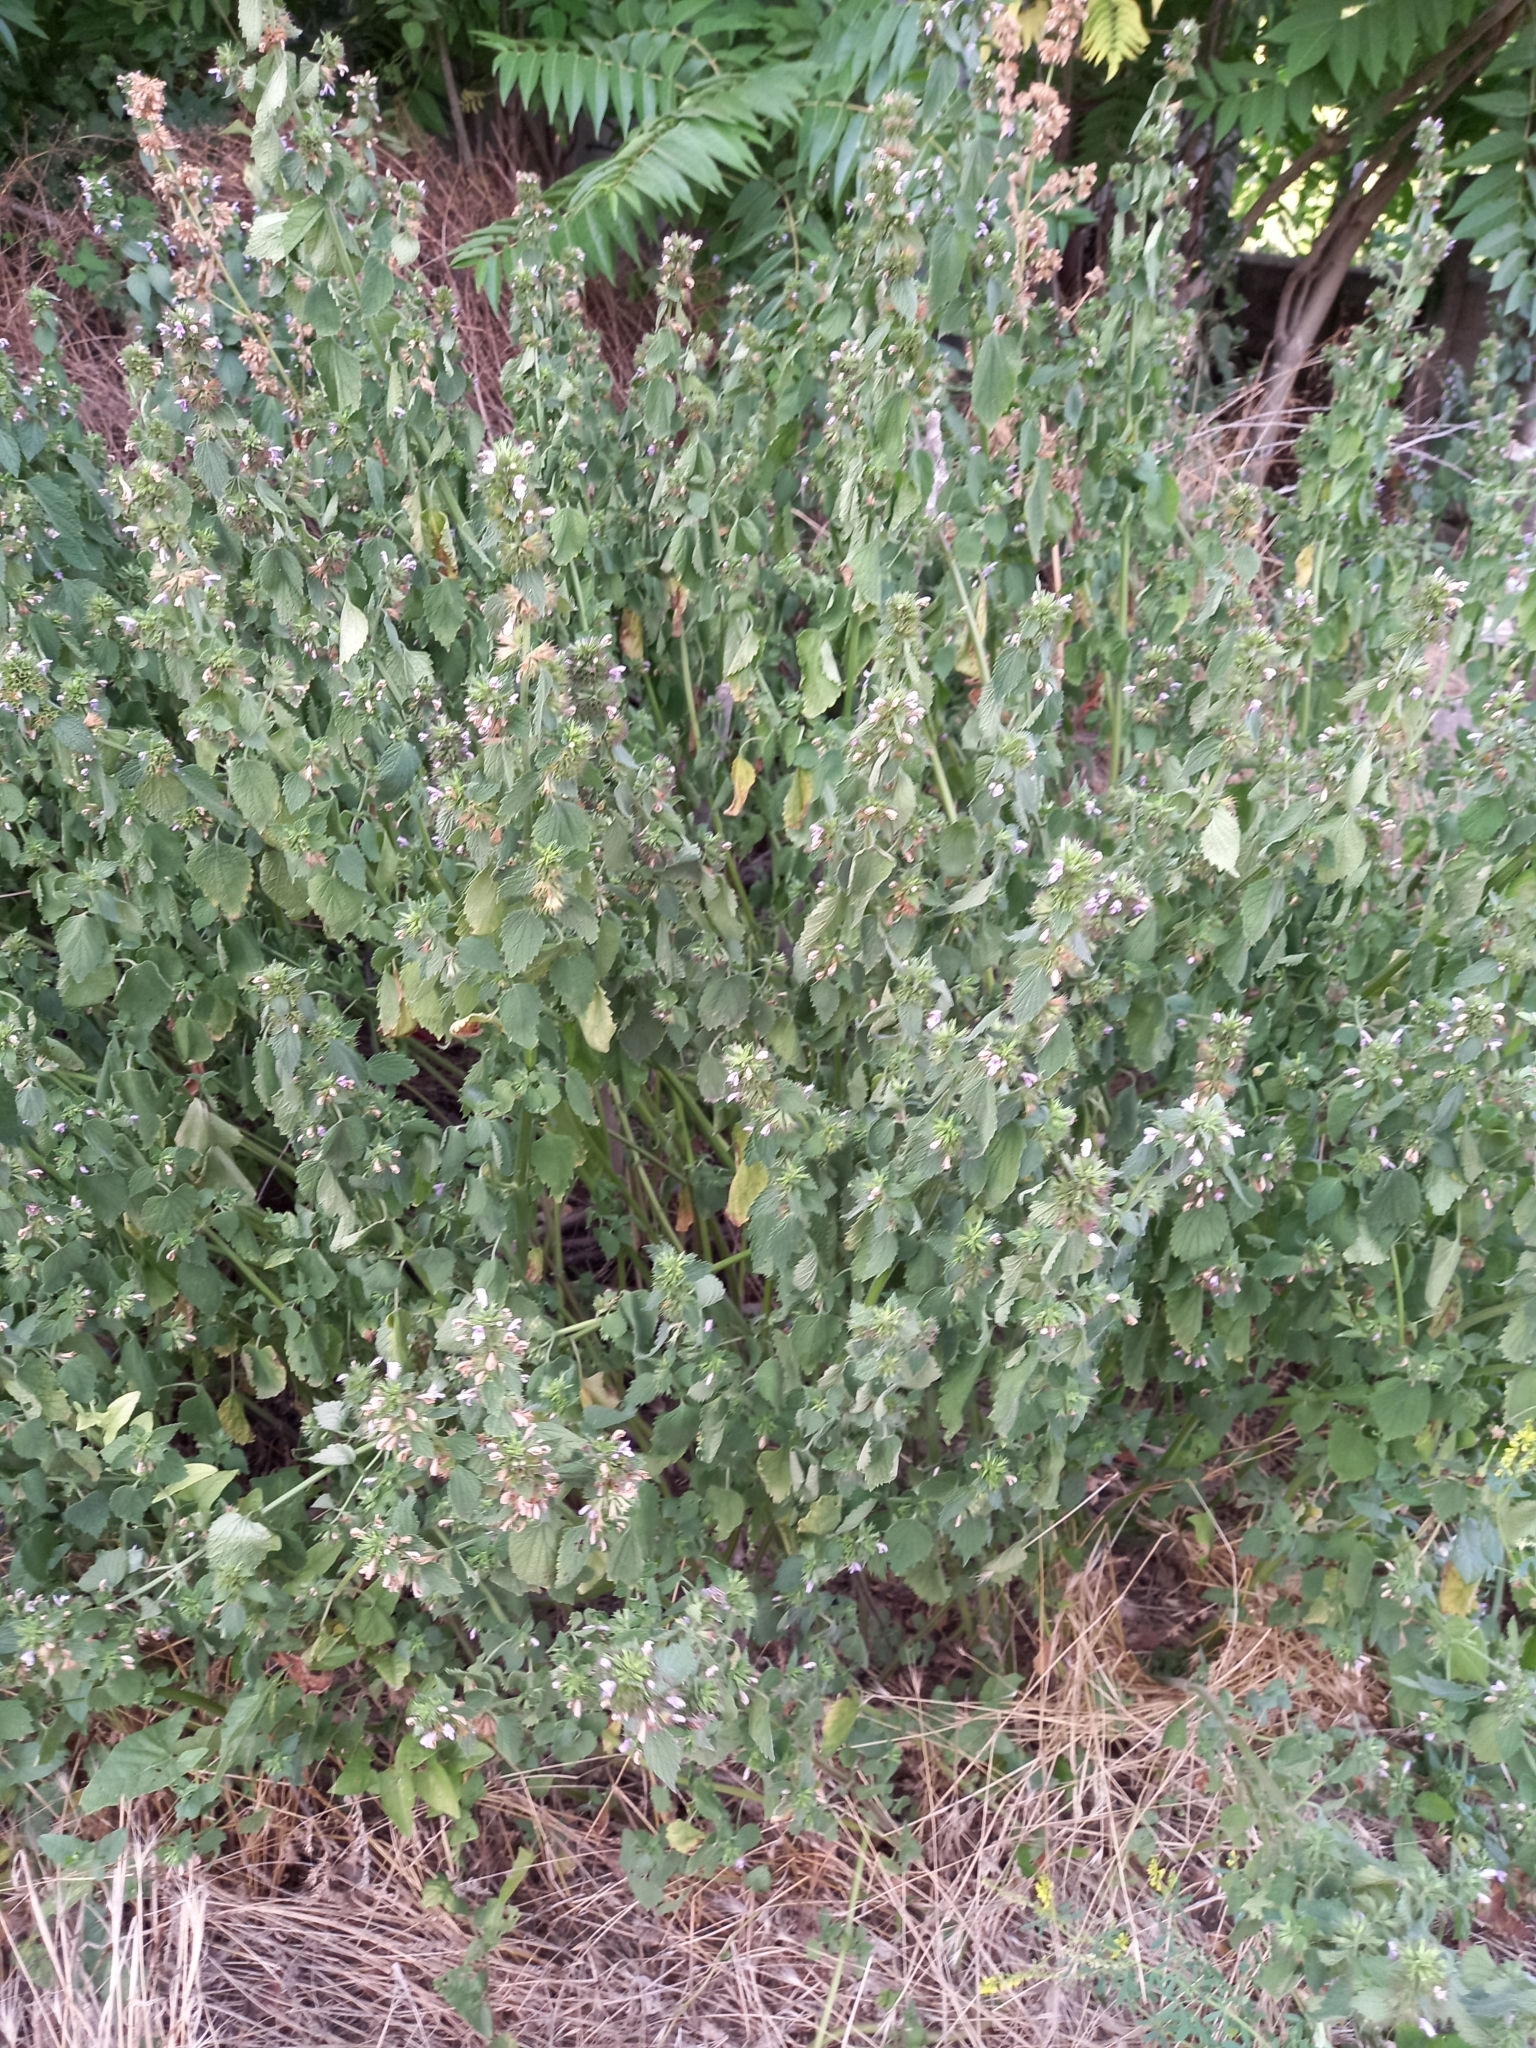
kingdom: Plantae
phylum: Tracheophyta
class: Magnoliopsida
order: Lamiales
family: Lamiaceae
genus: Ballota
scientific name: Ballota nigra
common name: Black horehound
